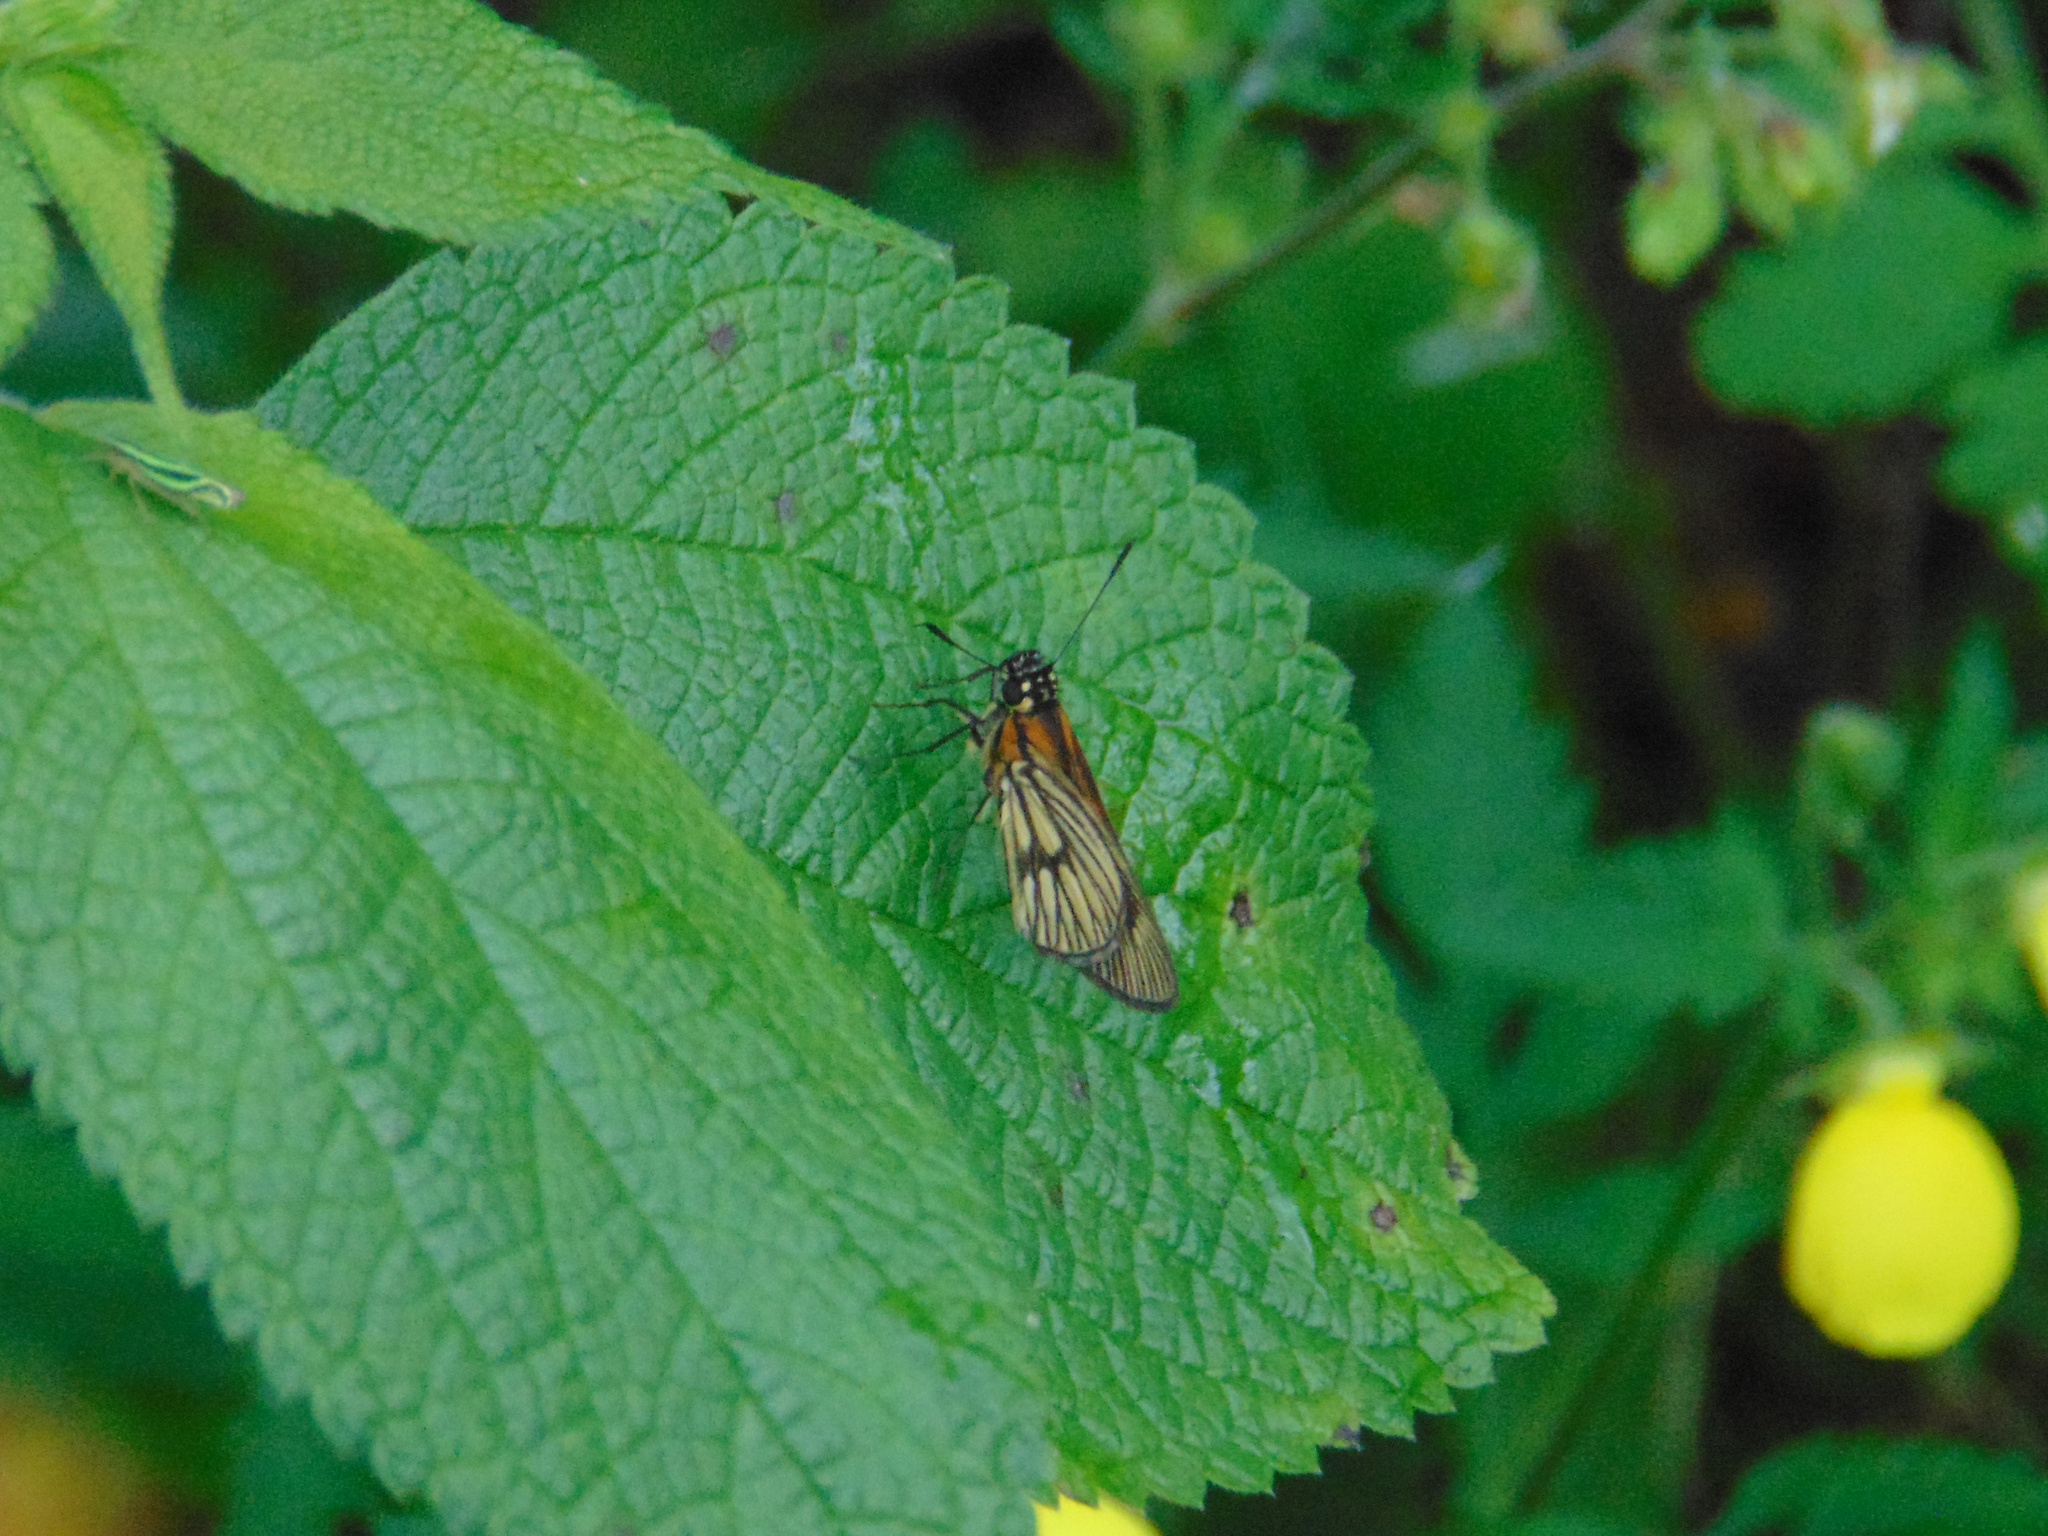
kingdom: Animalia
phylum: Arthropoda
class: Insecta
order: Lepidoptera
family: Hesperiidae
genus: Vehilius
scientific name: Vehilius clavicula
